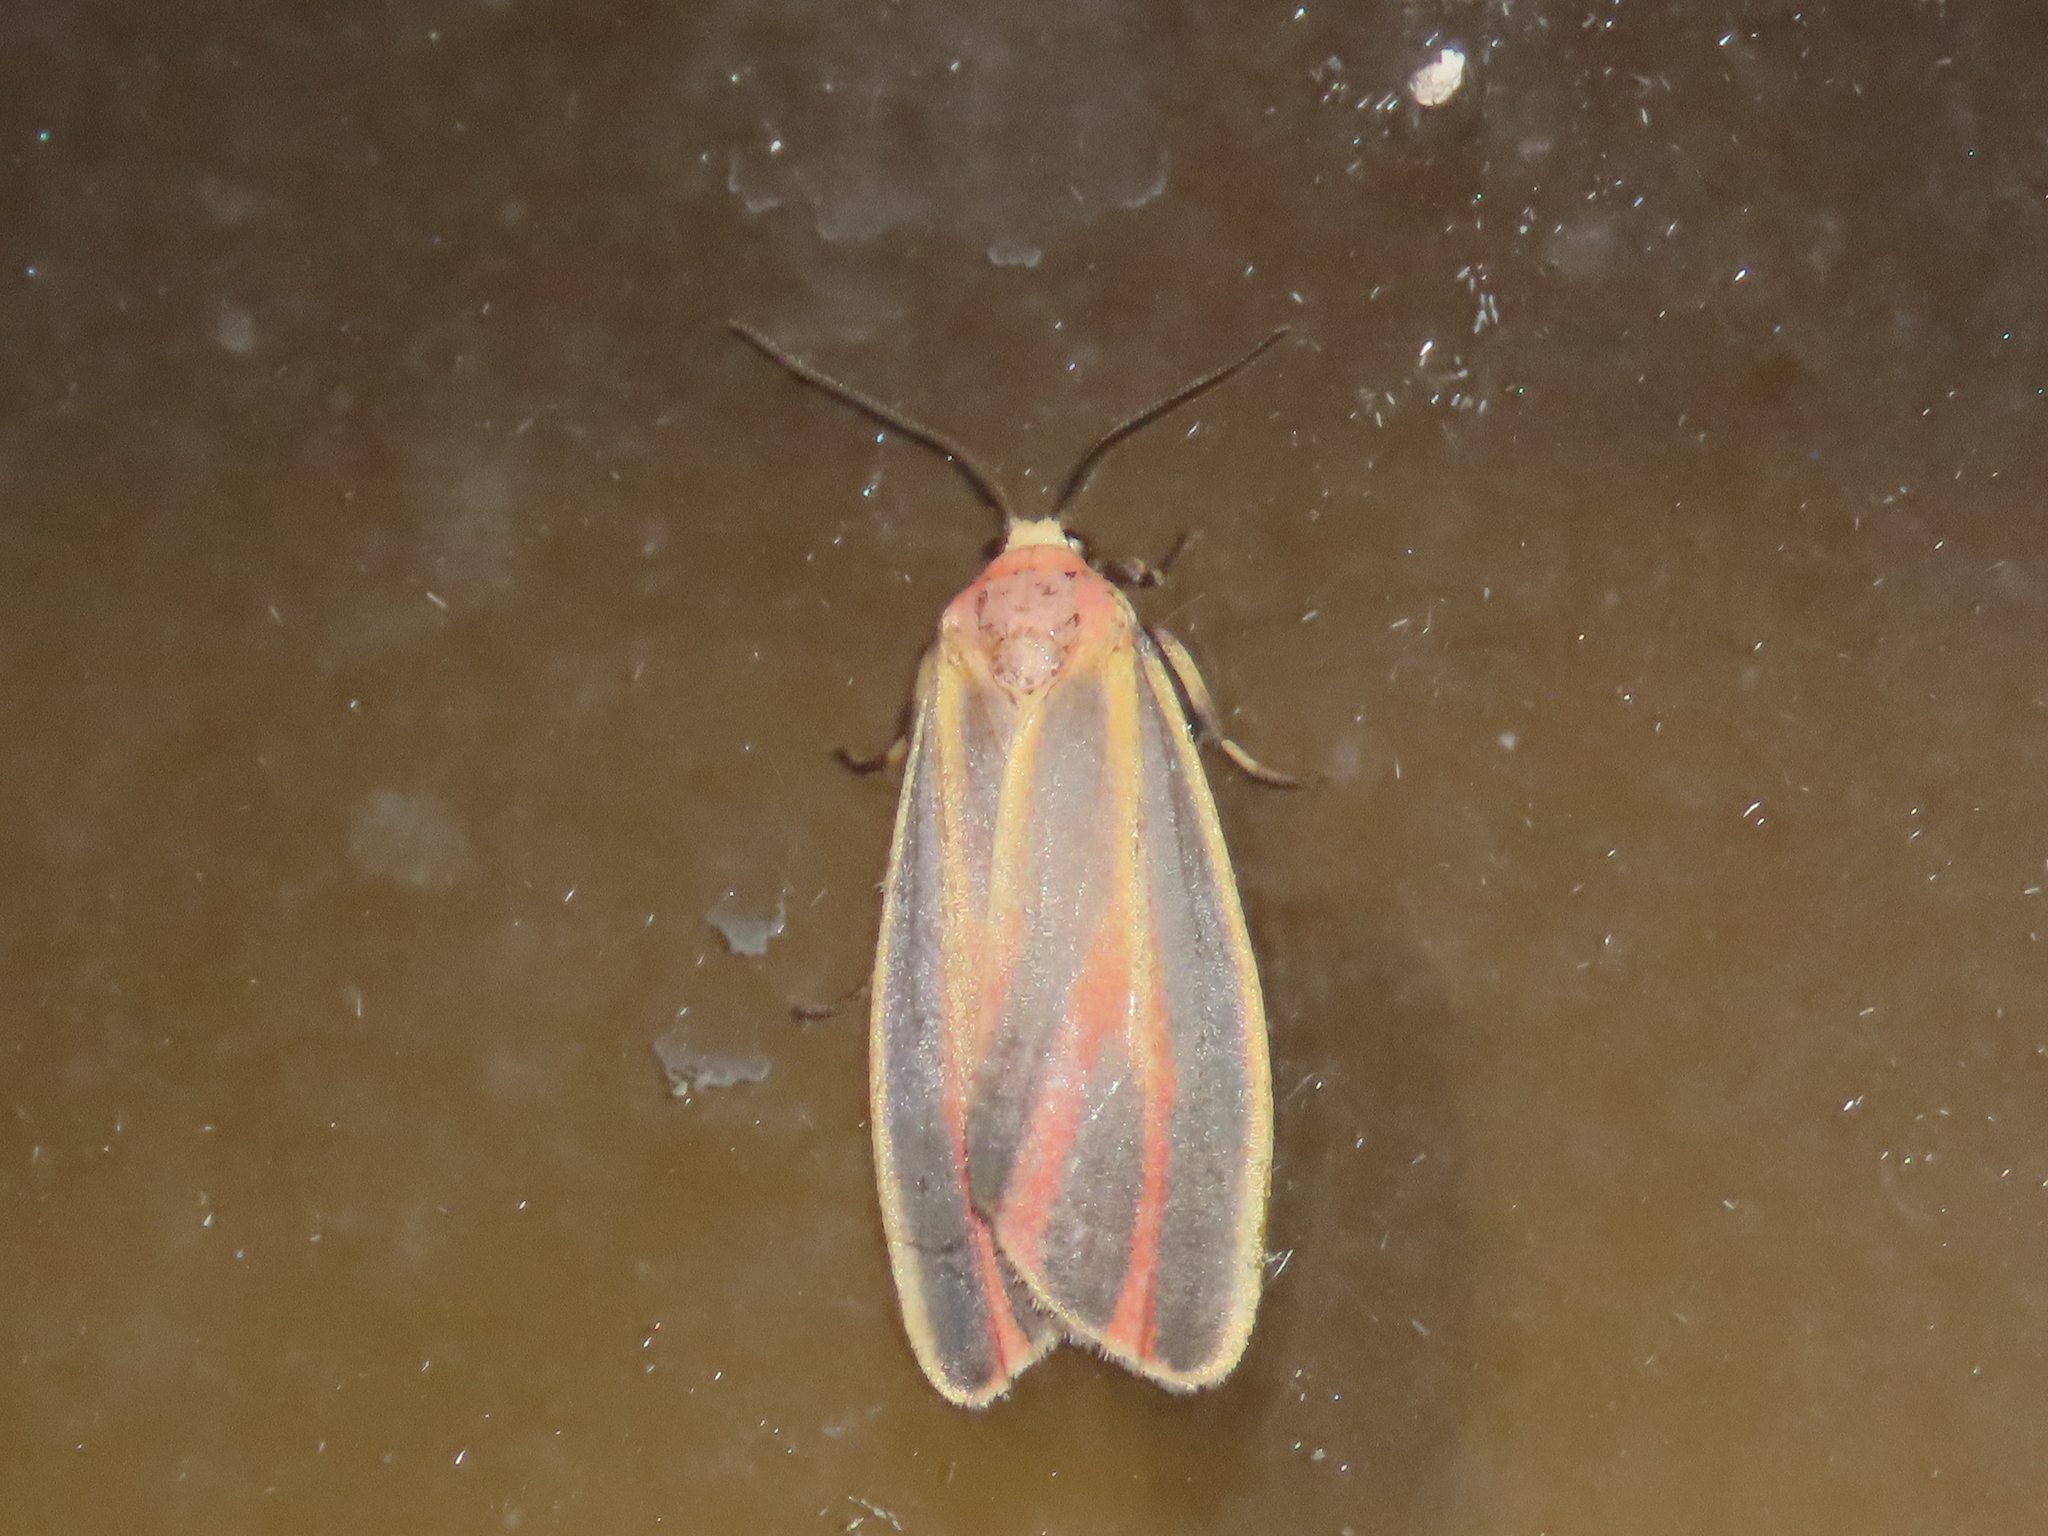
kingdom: Animalia
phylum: Arthropoda
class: Insecta
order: Lepidoptera
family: Erebidae
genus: Hypoprepia
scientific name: Hypoprepia fucosa
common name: Painted lichen moth
